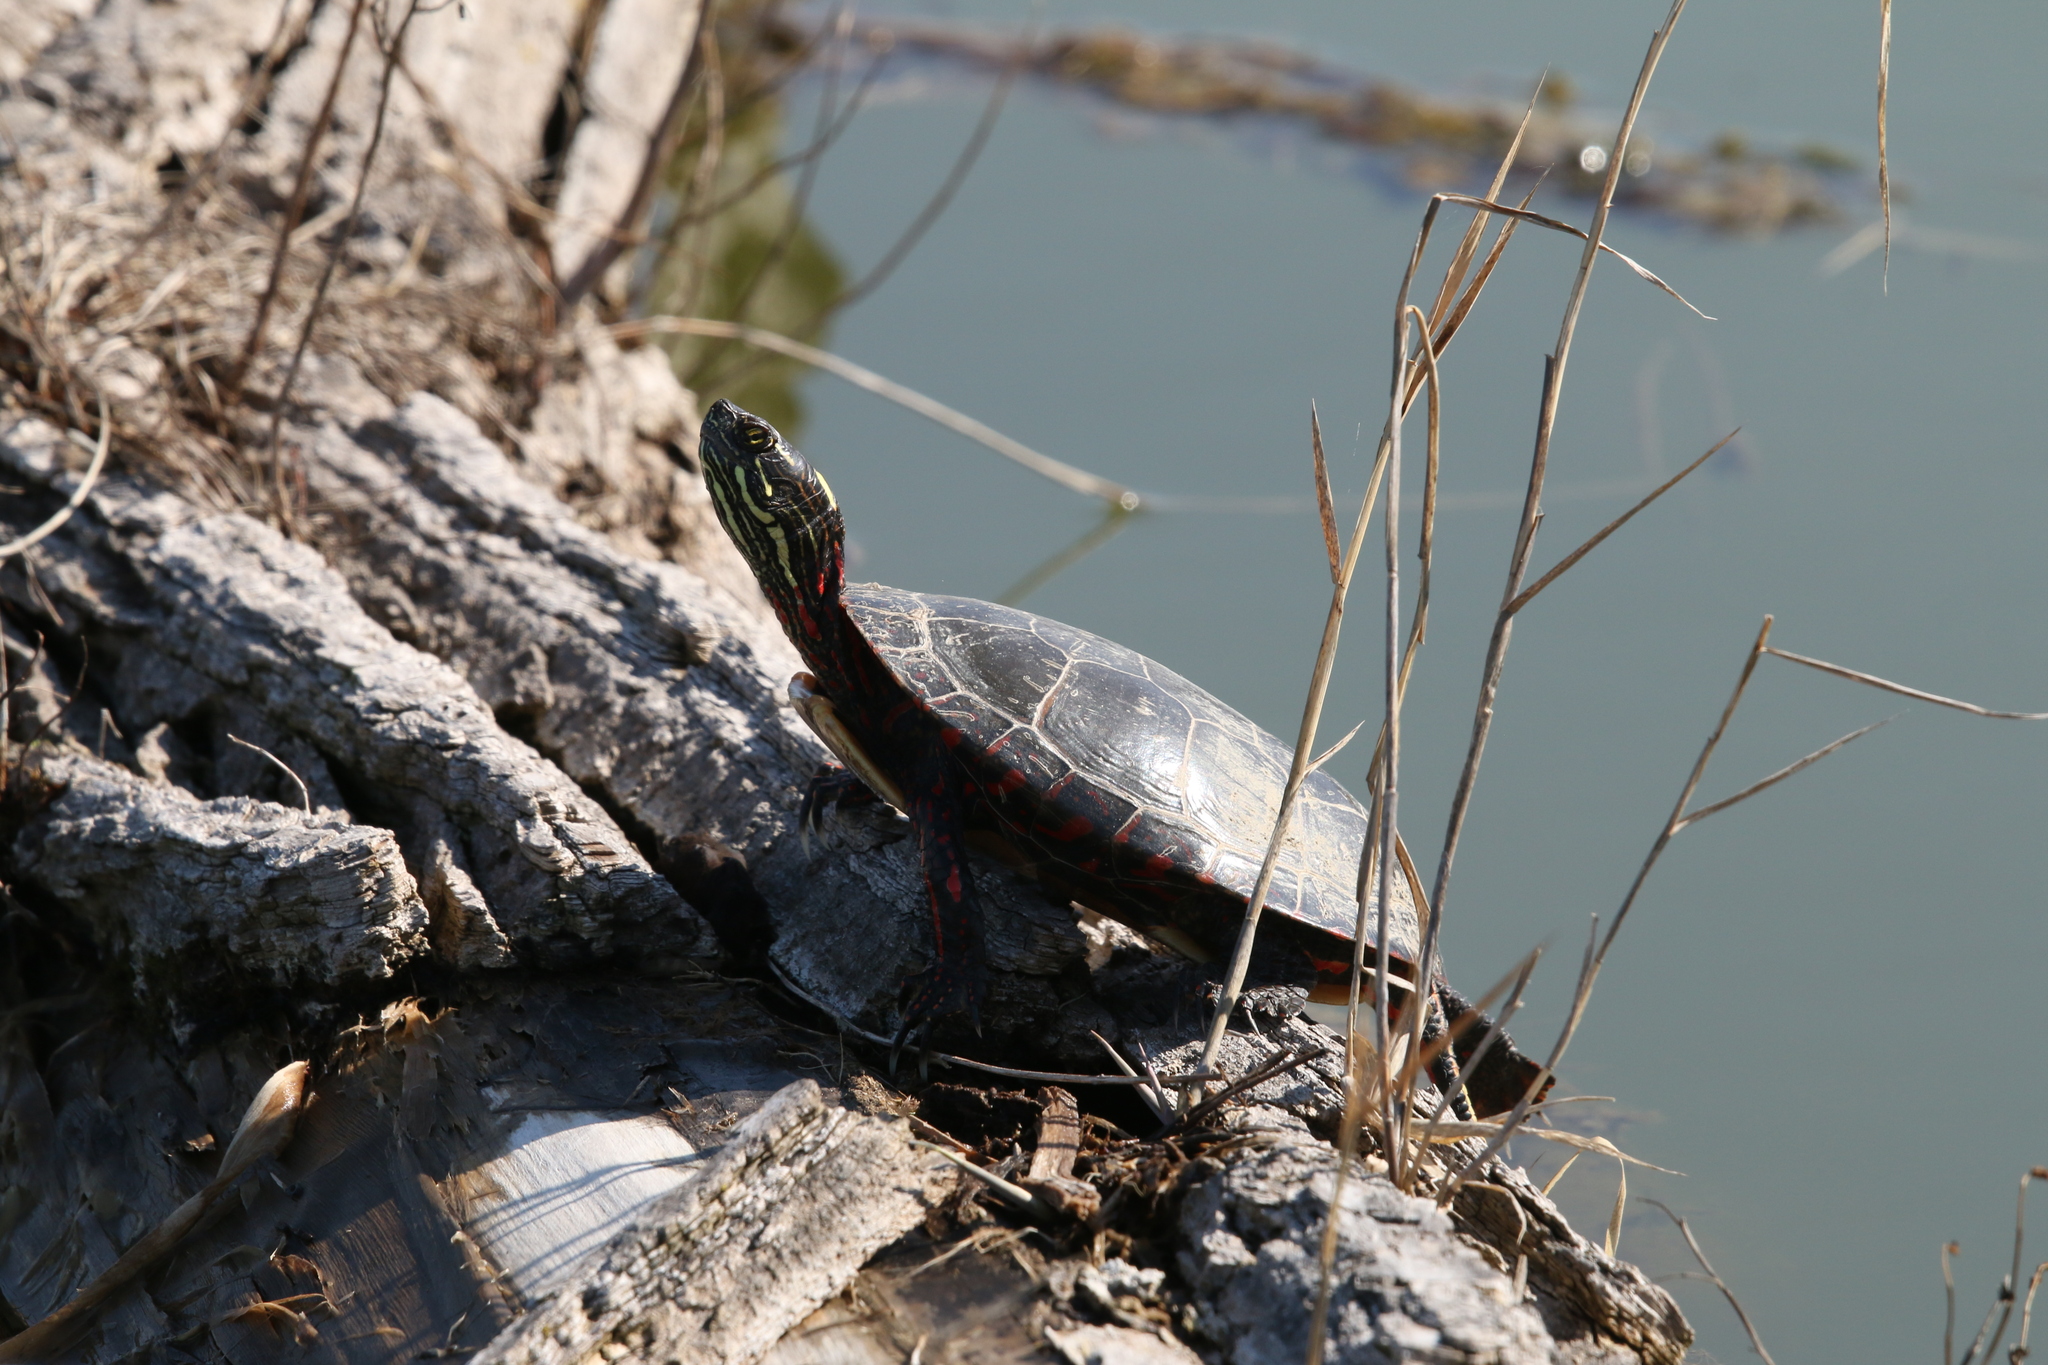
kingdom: Animalia
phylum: Chordata
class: Testudines
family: Emydidae
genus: Chrysemys
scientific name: Chrysemys picta
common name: Painted turtle
